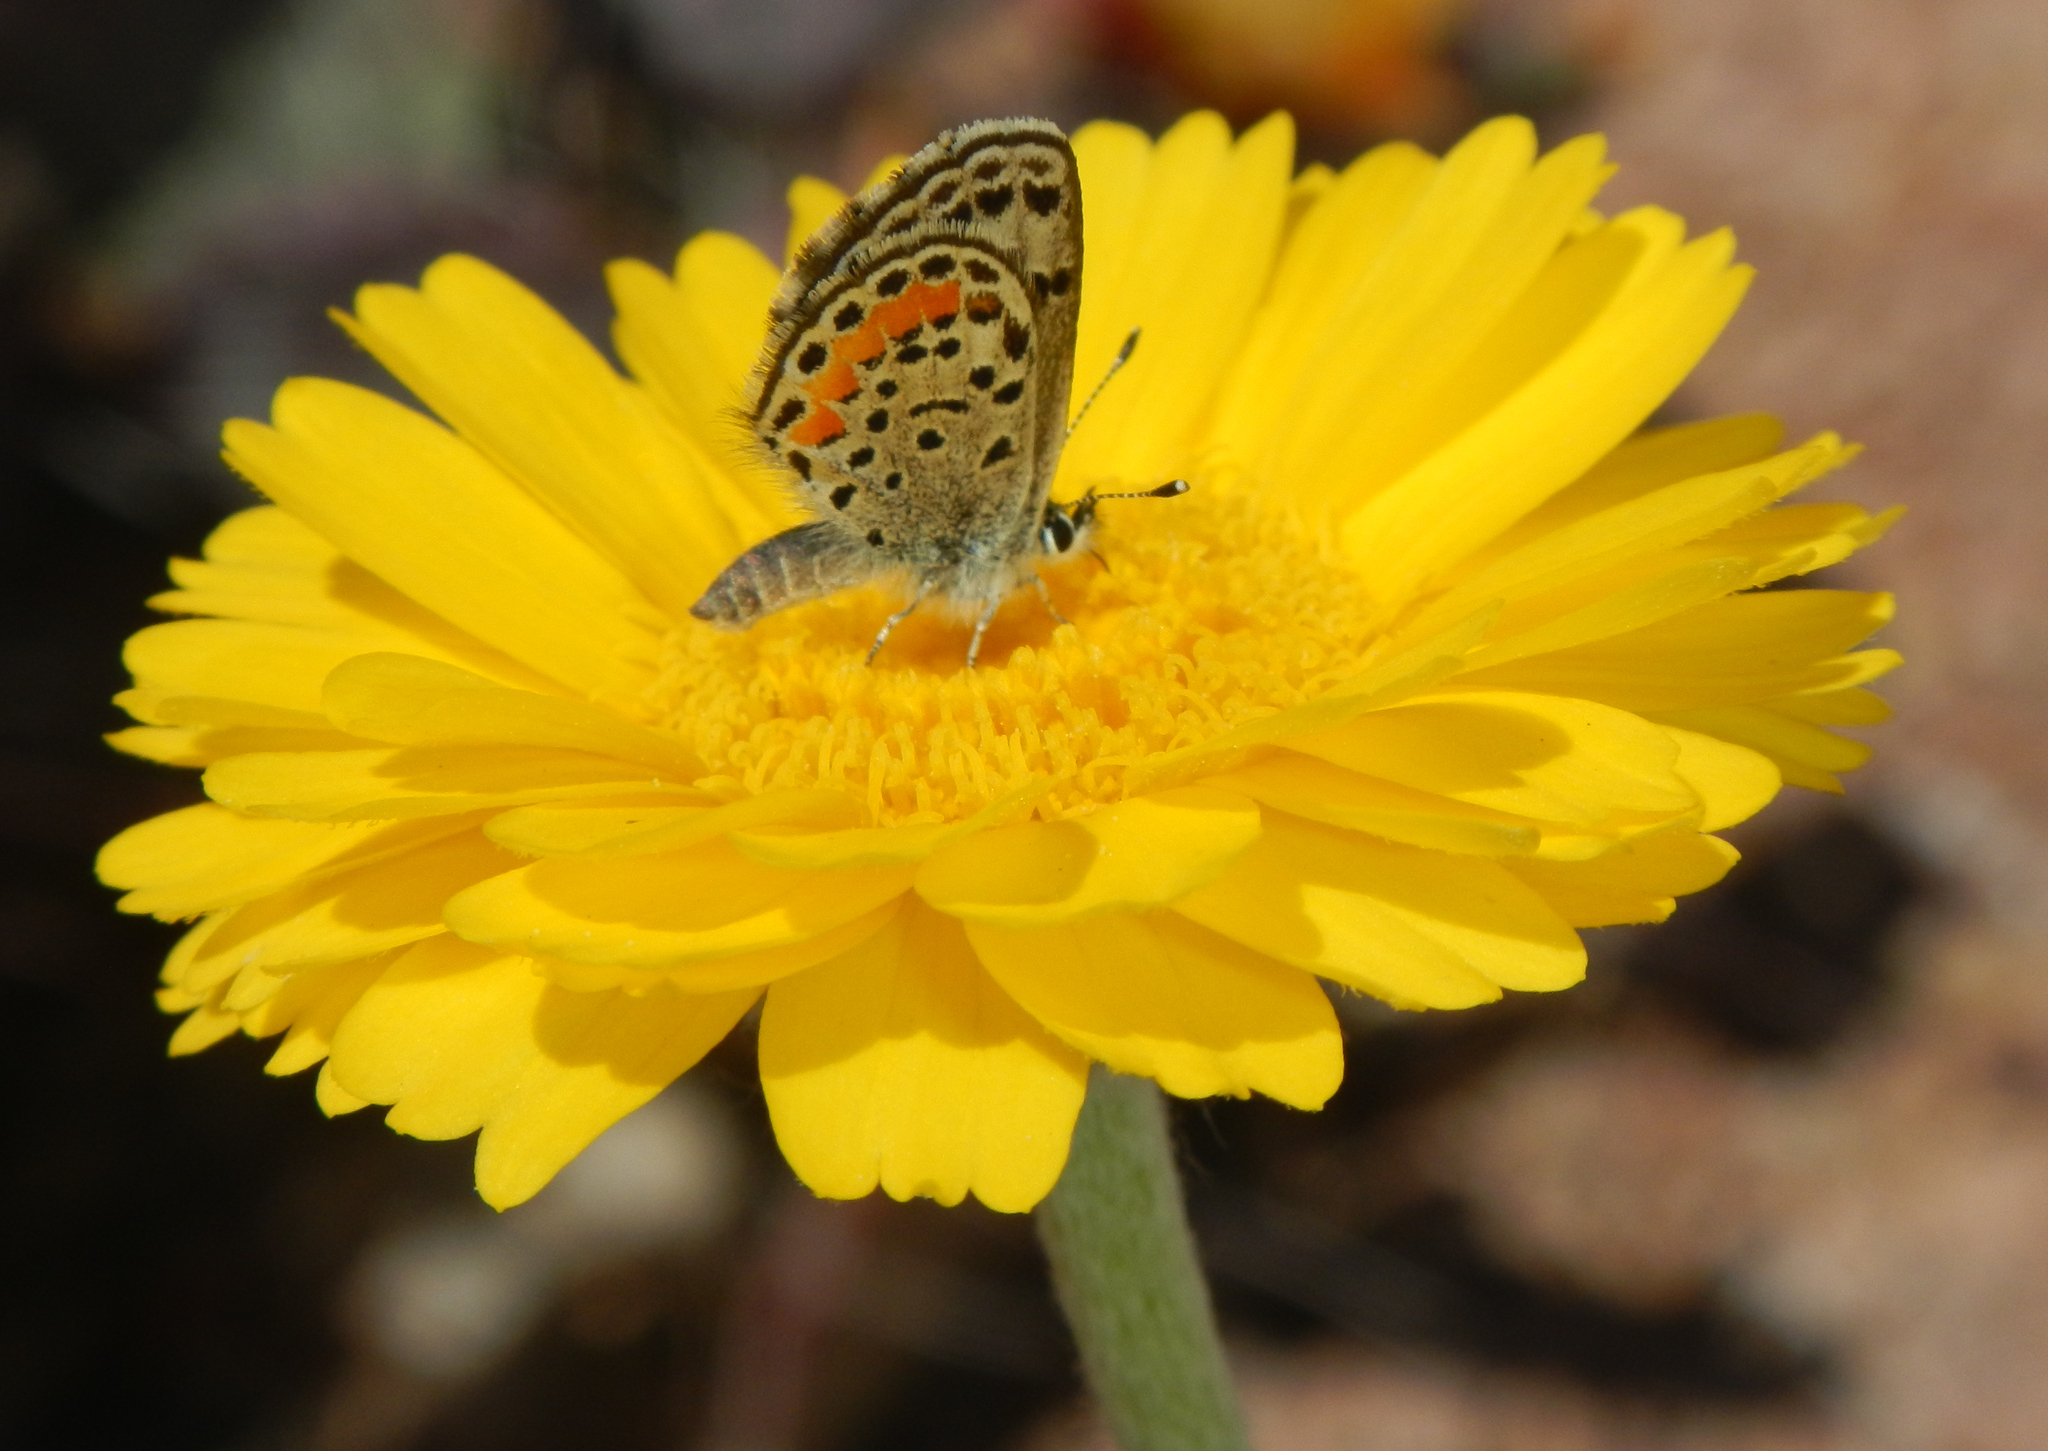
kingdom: Animalia
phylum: Arthropoda
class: Insecta
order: Lepidoptera
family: Lycaenidae
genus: Philotes
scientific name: Philotes bernardino
